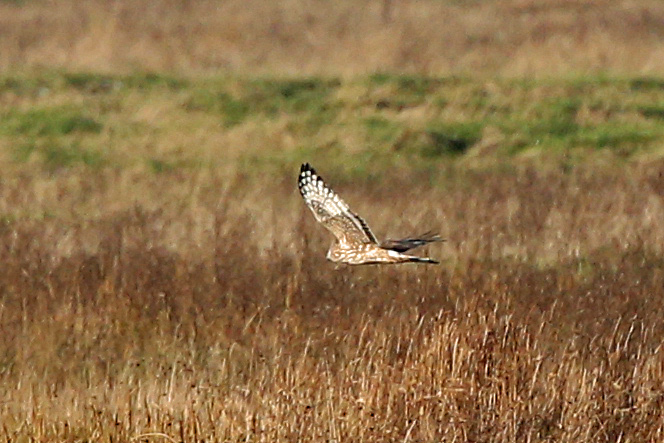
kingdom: Animalia
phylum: Chordata
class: Aves
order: Accipitriformes
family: Accipitridae
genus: Circus
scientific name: Circus cyaneus
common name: Hen harrier
